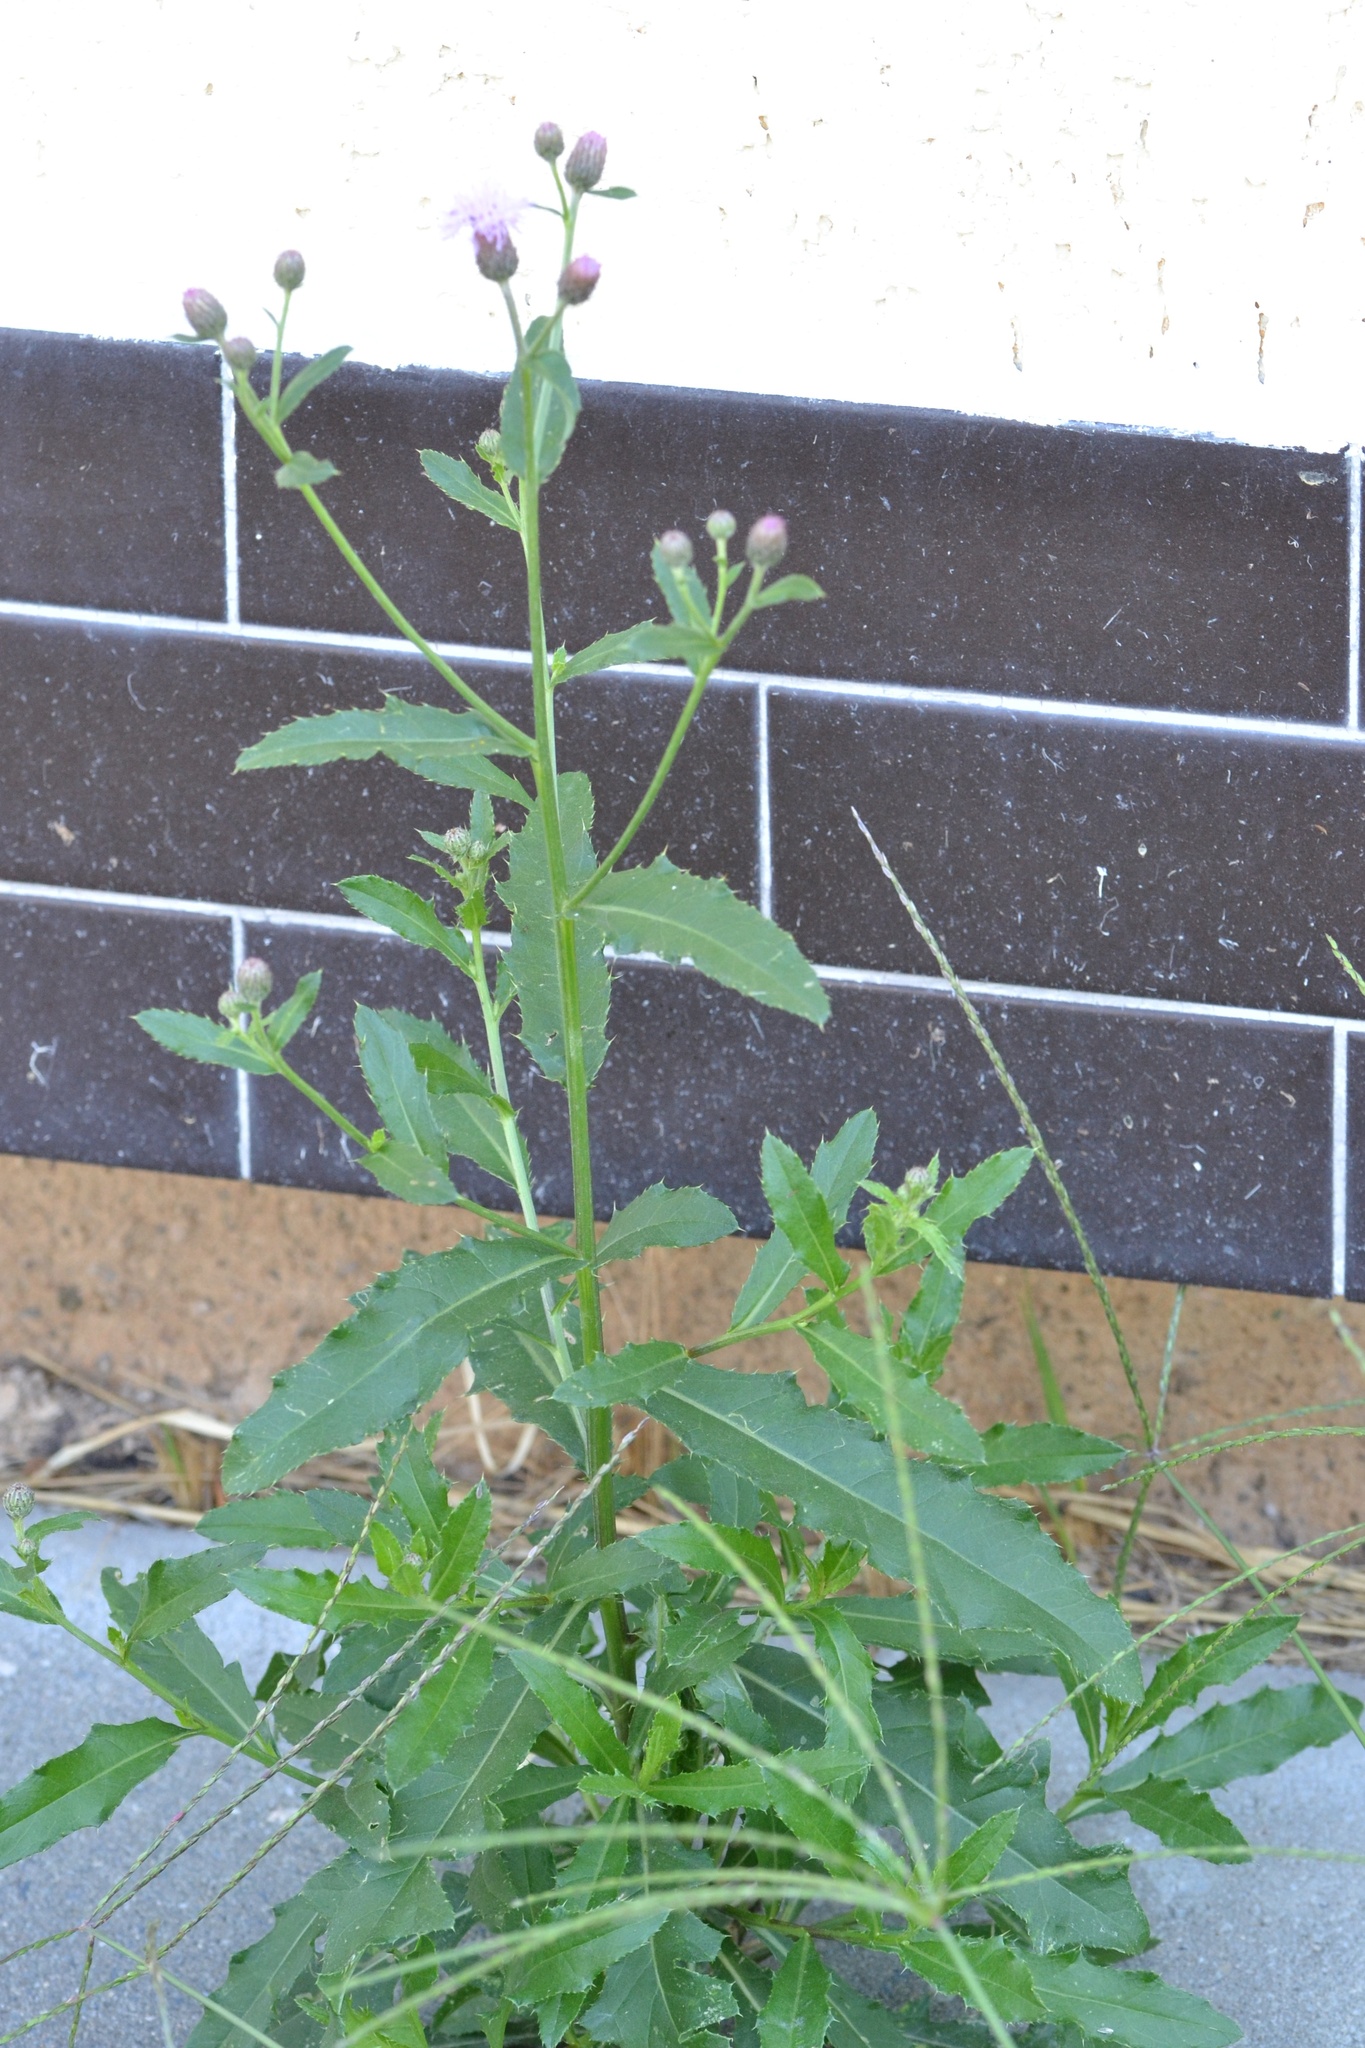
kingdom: Plantae
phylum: Tracheophyta
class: Magnoliopsida
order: Asterales
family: Asteraceae
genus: Cirsium
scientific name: Cirsium arvense
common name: Creeping thistle
